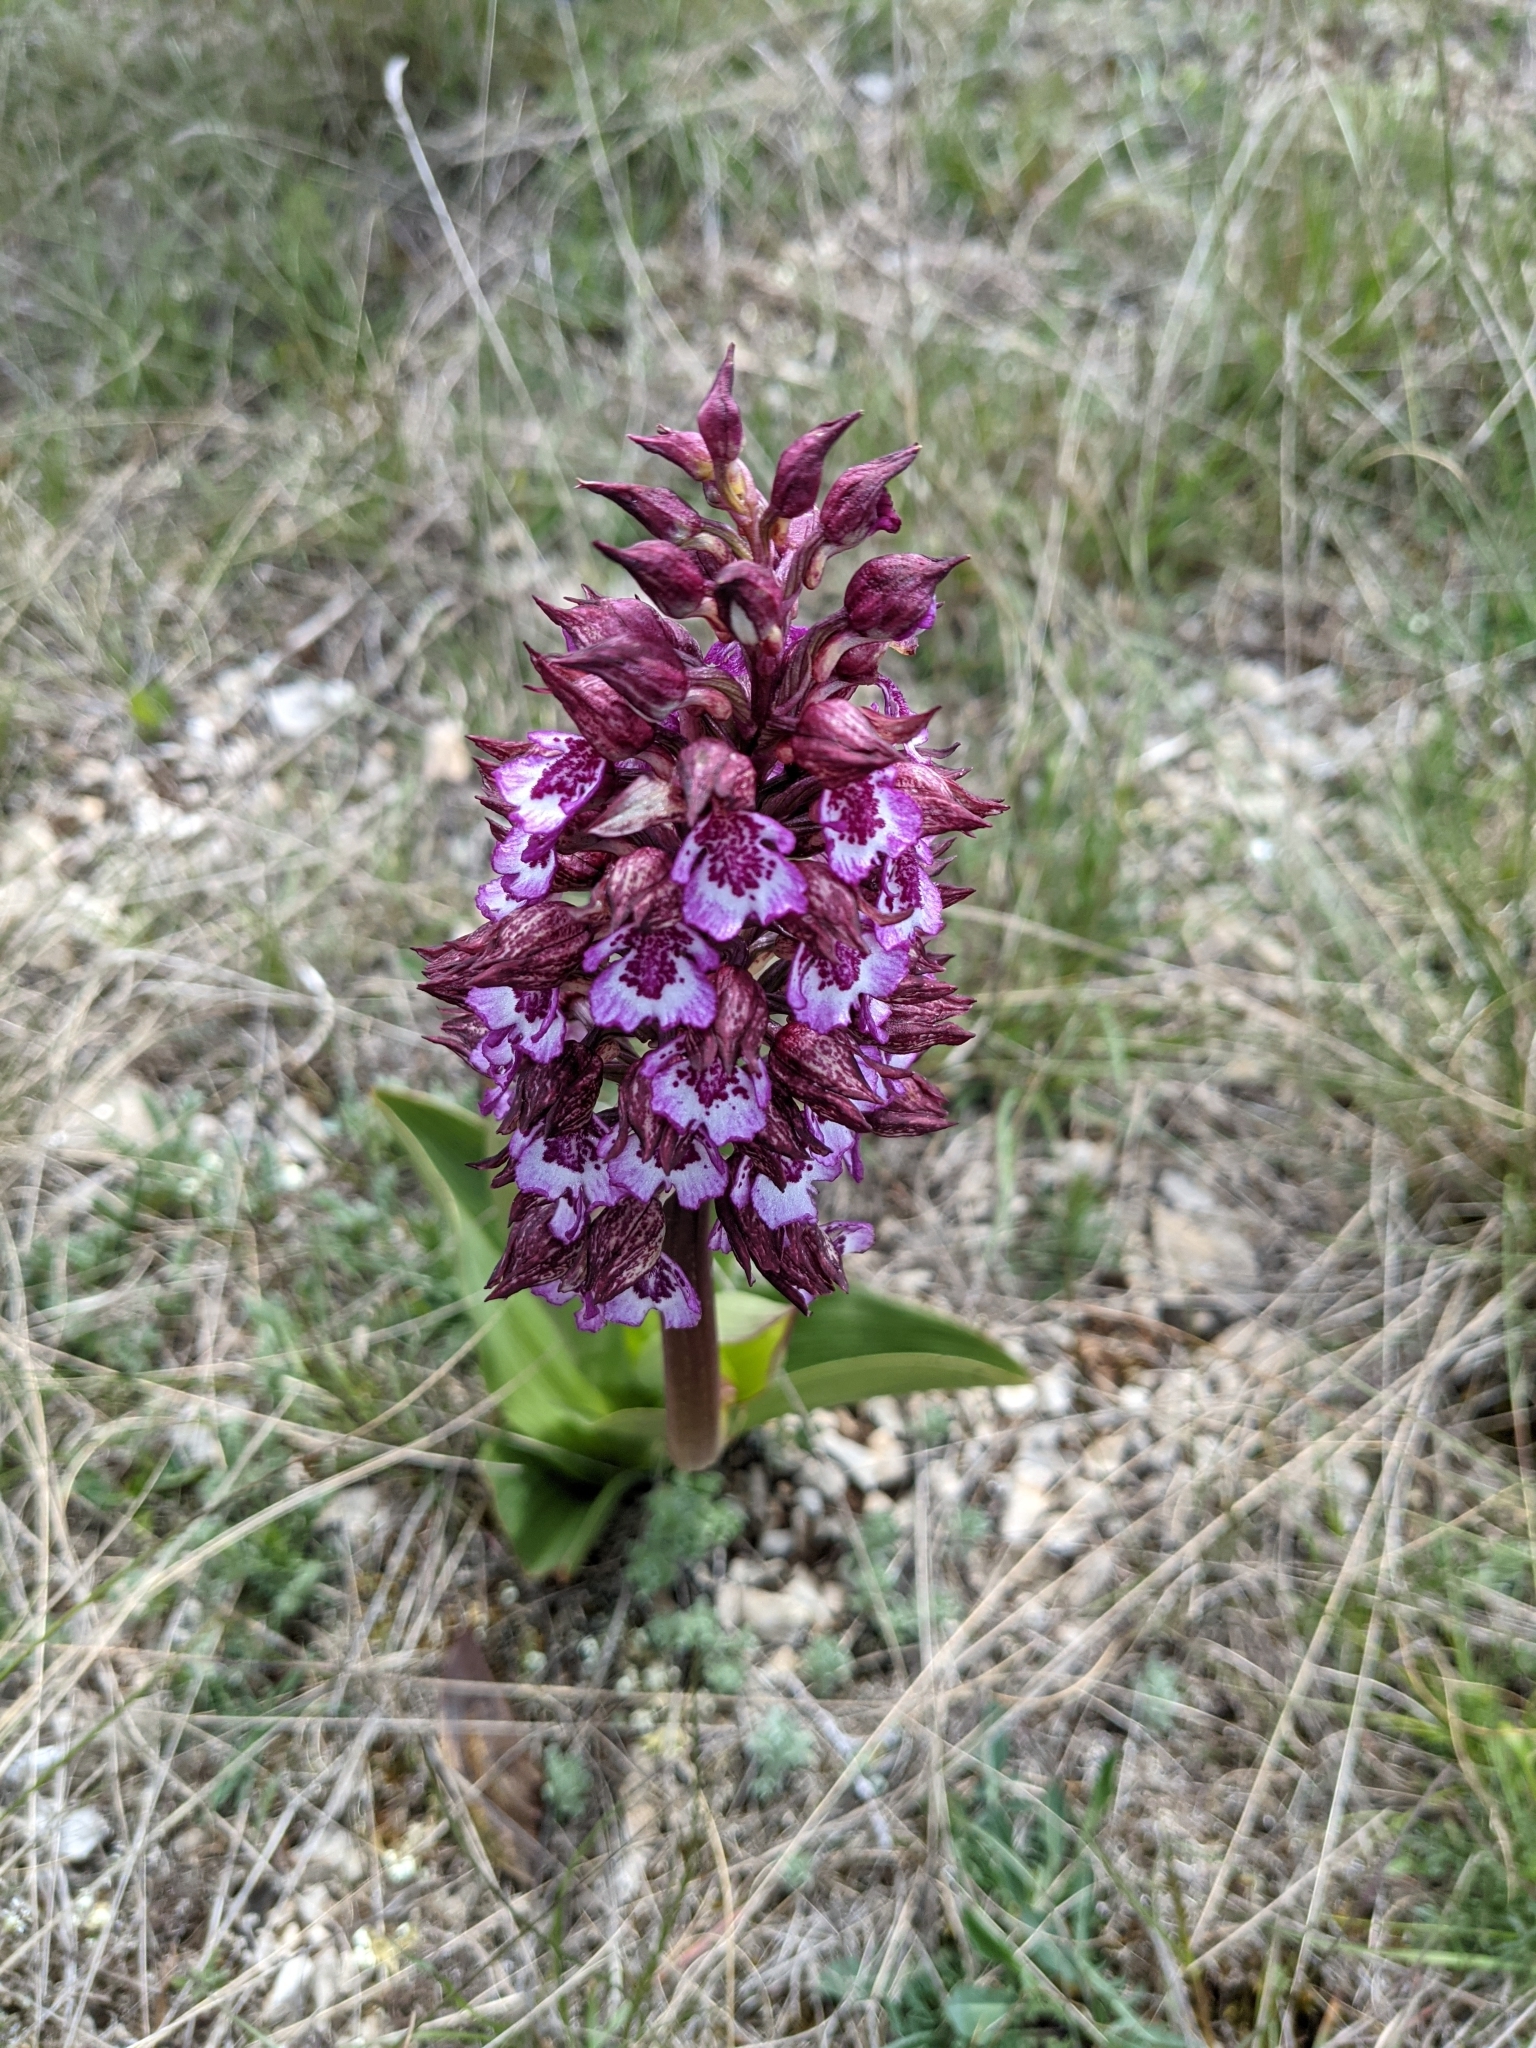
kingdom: Plantae
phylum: Tracheophyta
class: Liliopsida
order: Asparagales
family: Orchidaceae
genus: Orchis
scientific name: Orchis purpurea
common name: Lady orchid
